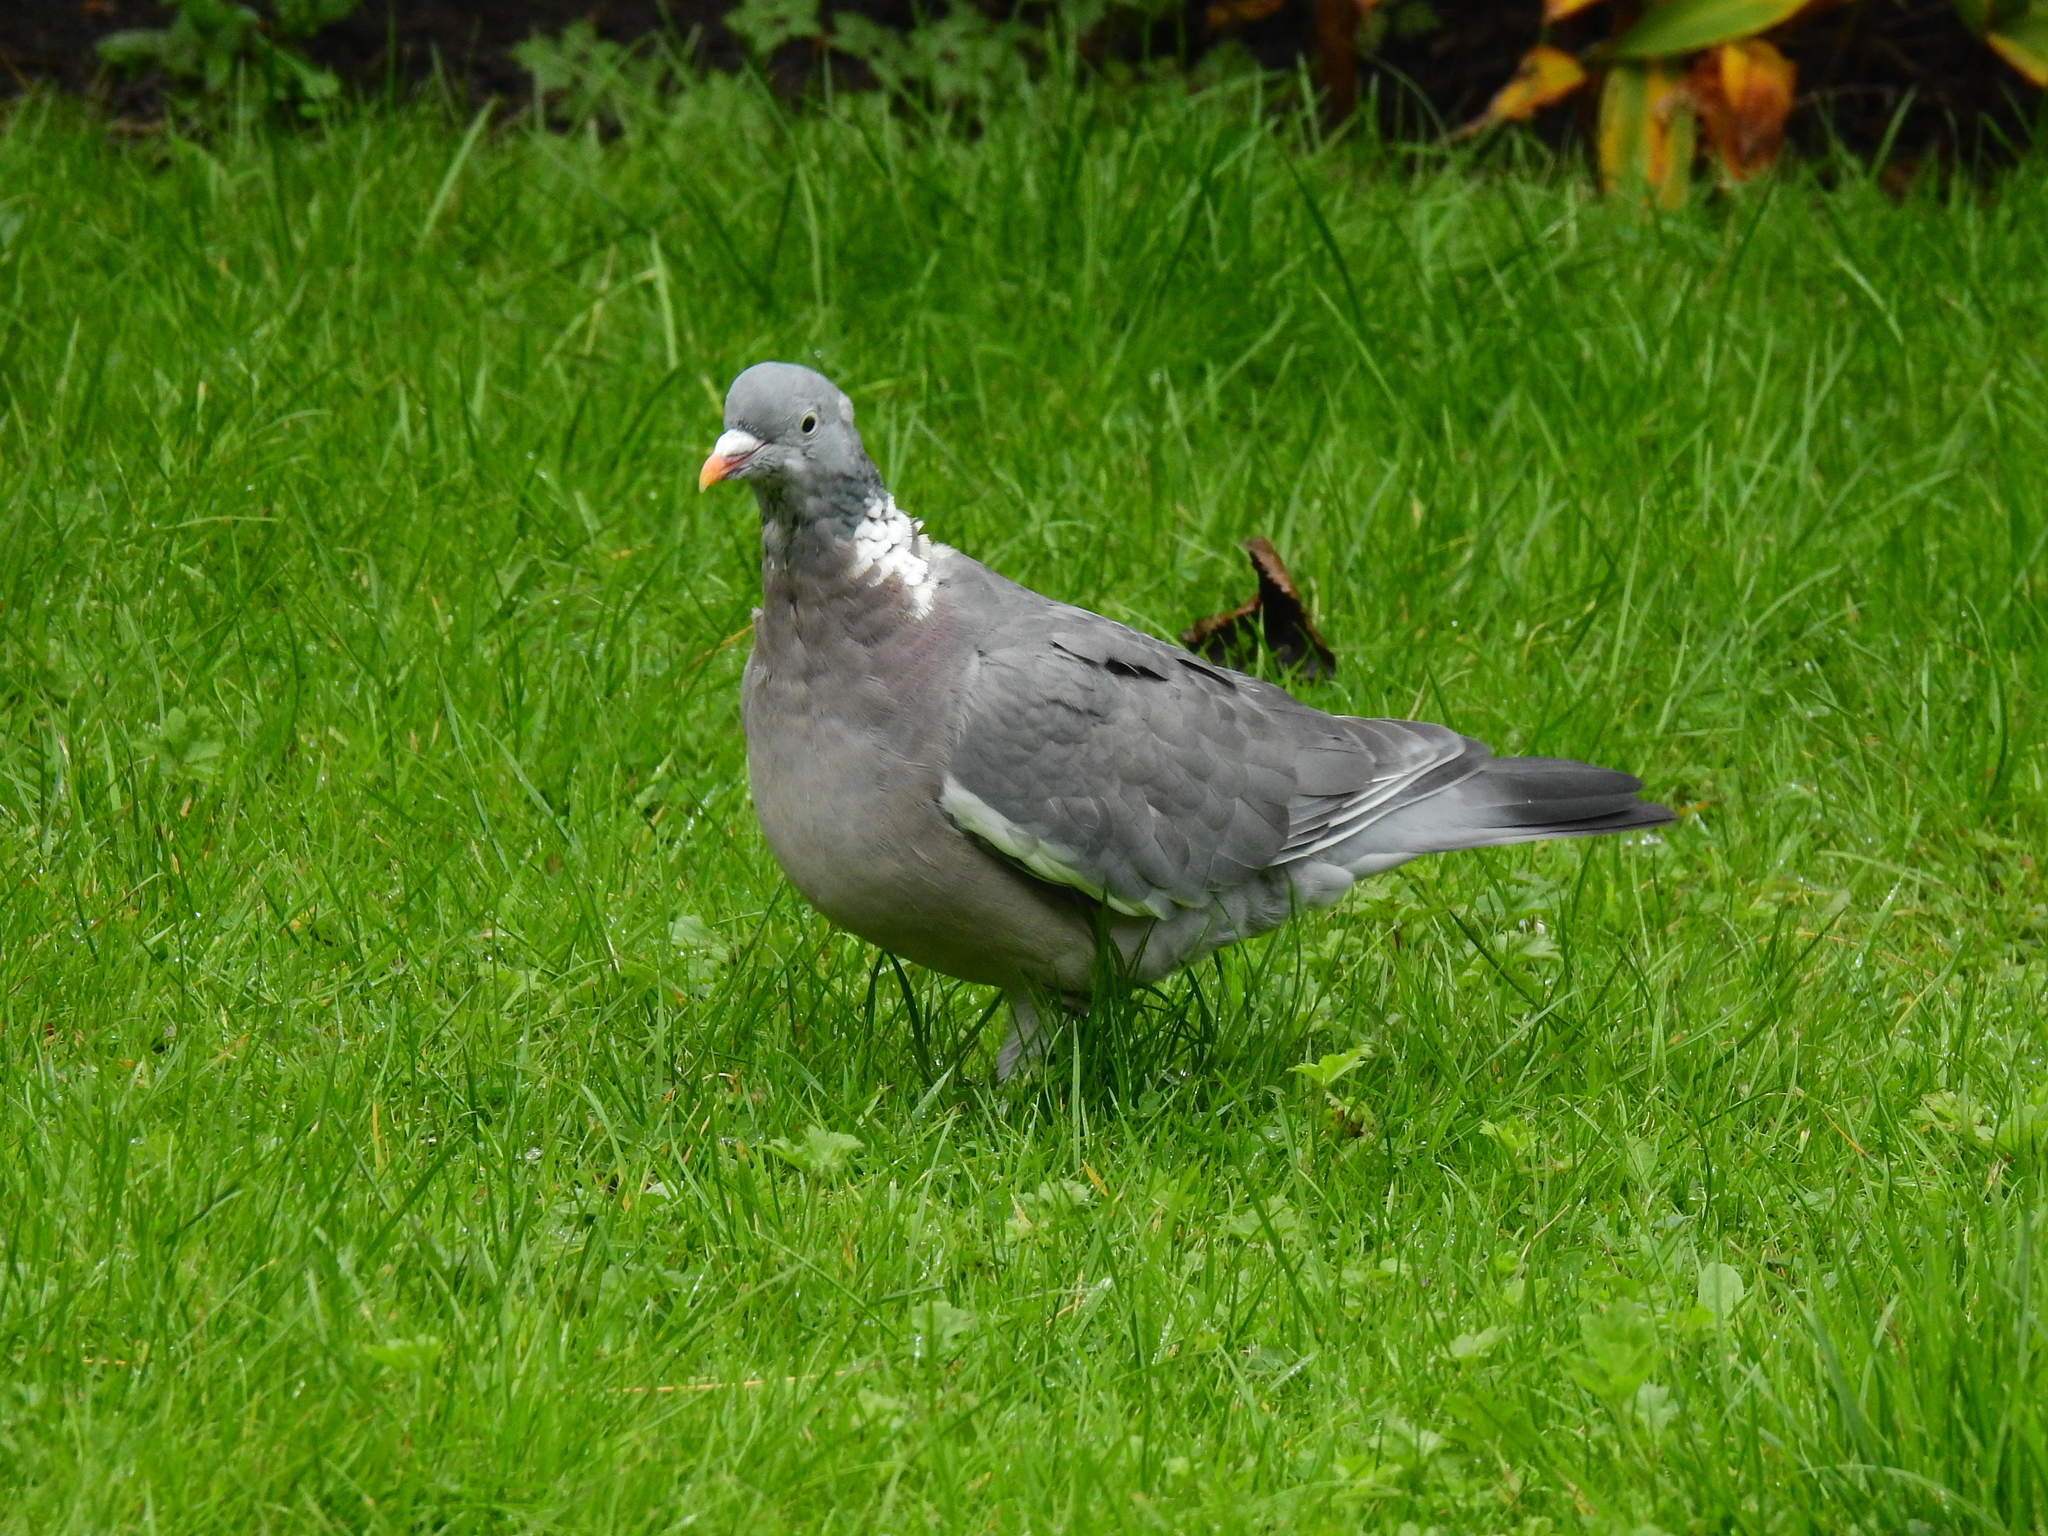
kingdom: Animalia
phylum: Chordata
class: Aves
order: Columbiformes
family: Columbidae
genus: Columba
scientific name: Columba palumbus
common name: Common wood pigeon
